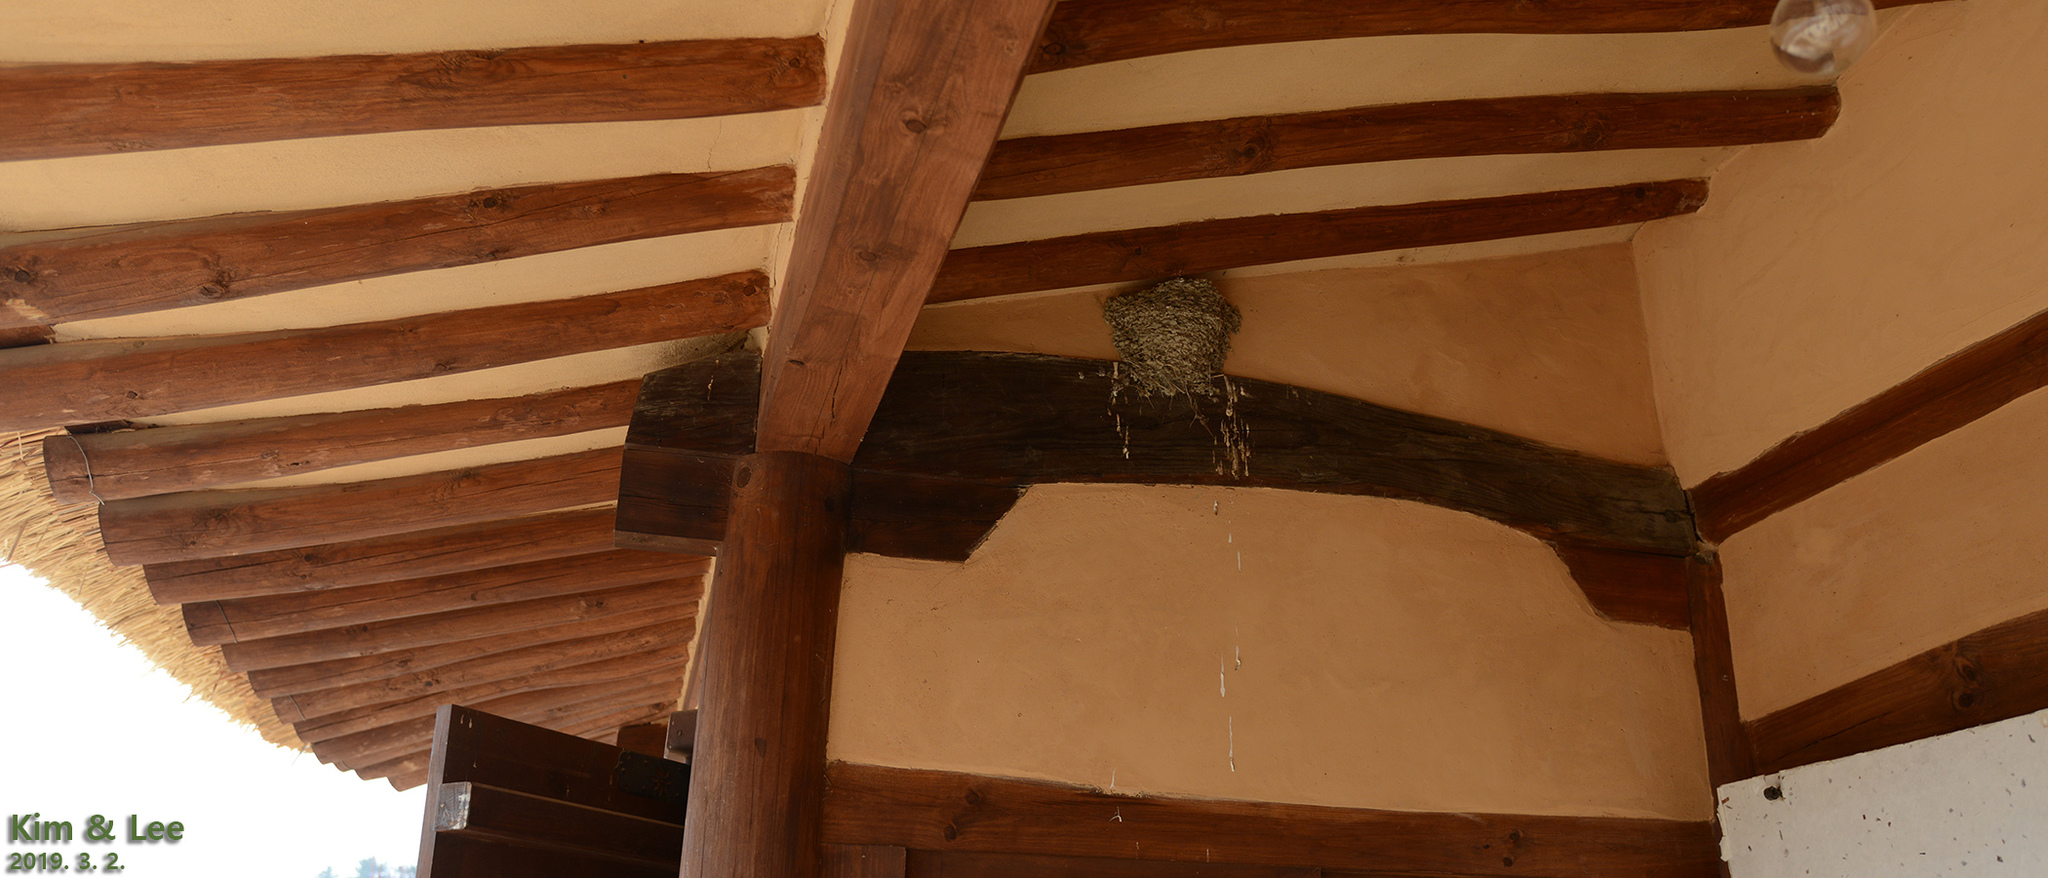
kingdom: Animalia
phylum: Chordata
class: Aves
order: Passeriformes
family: Hirundinidae
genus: Hirundo
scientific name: Hirundo rustica
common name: Barn swallow
